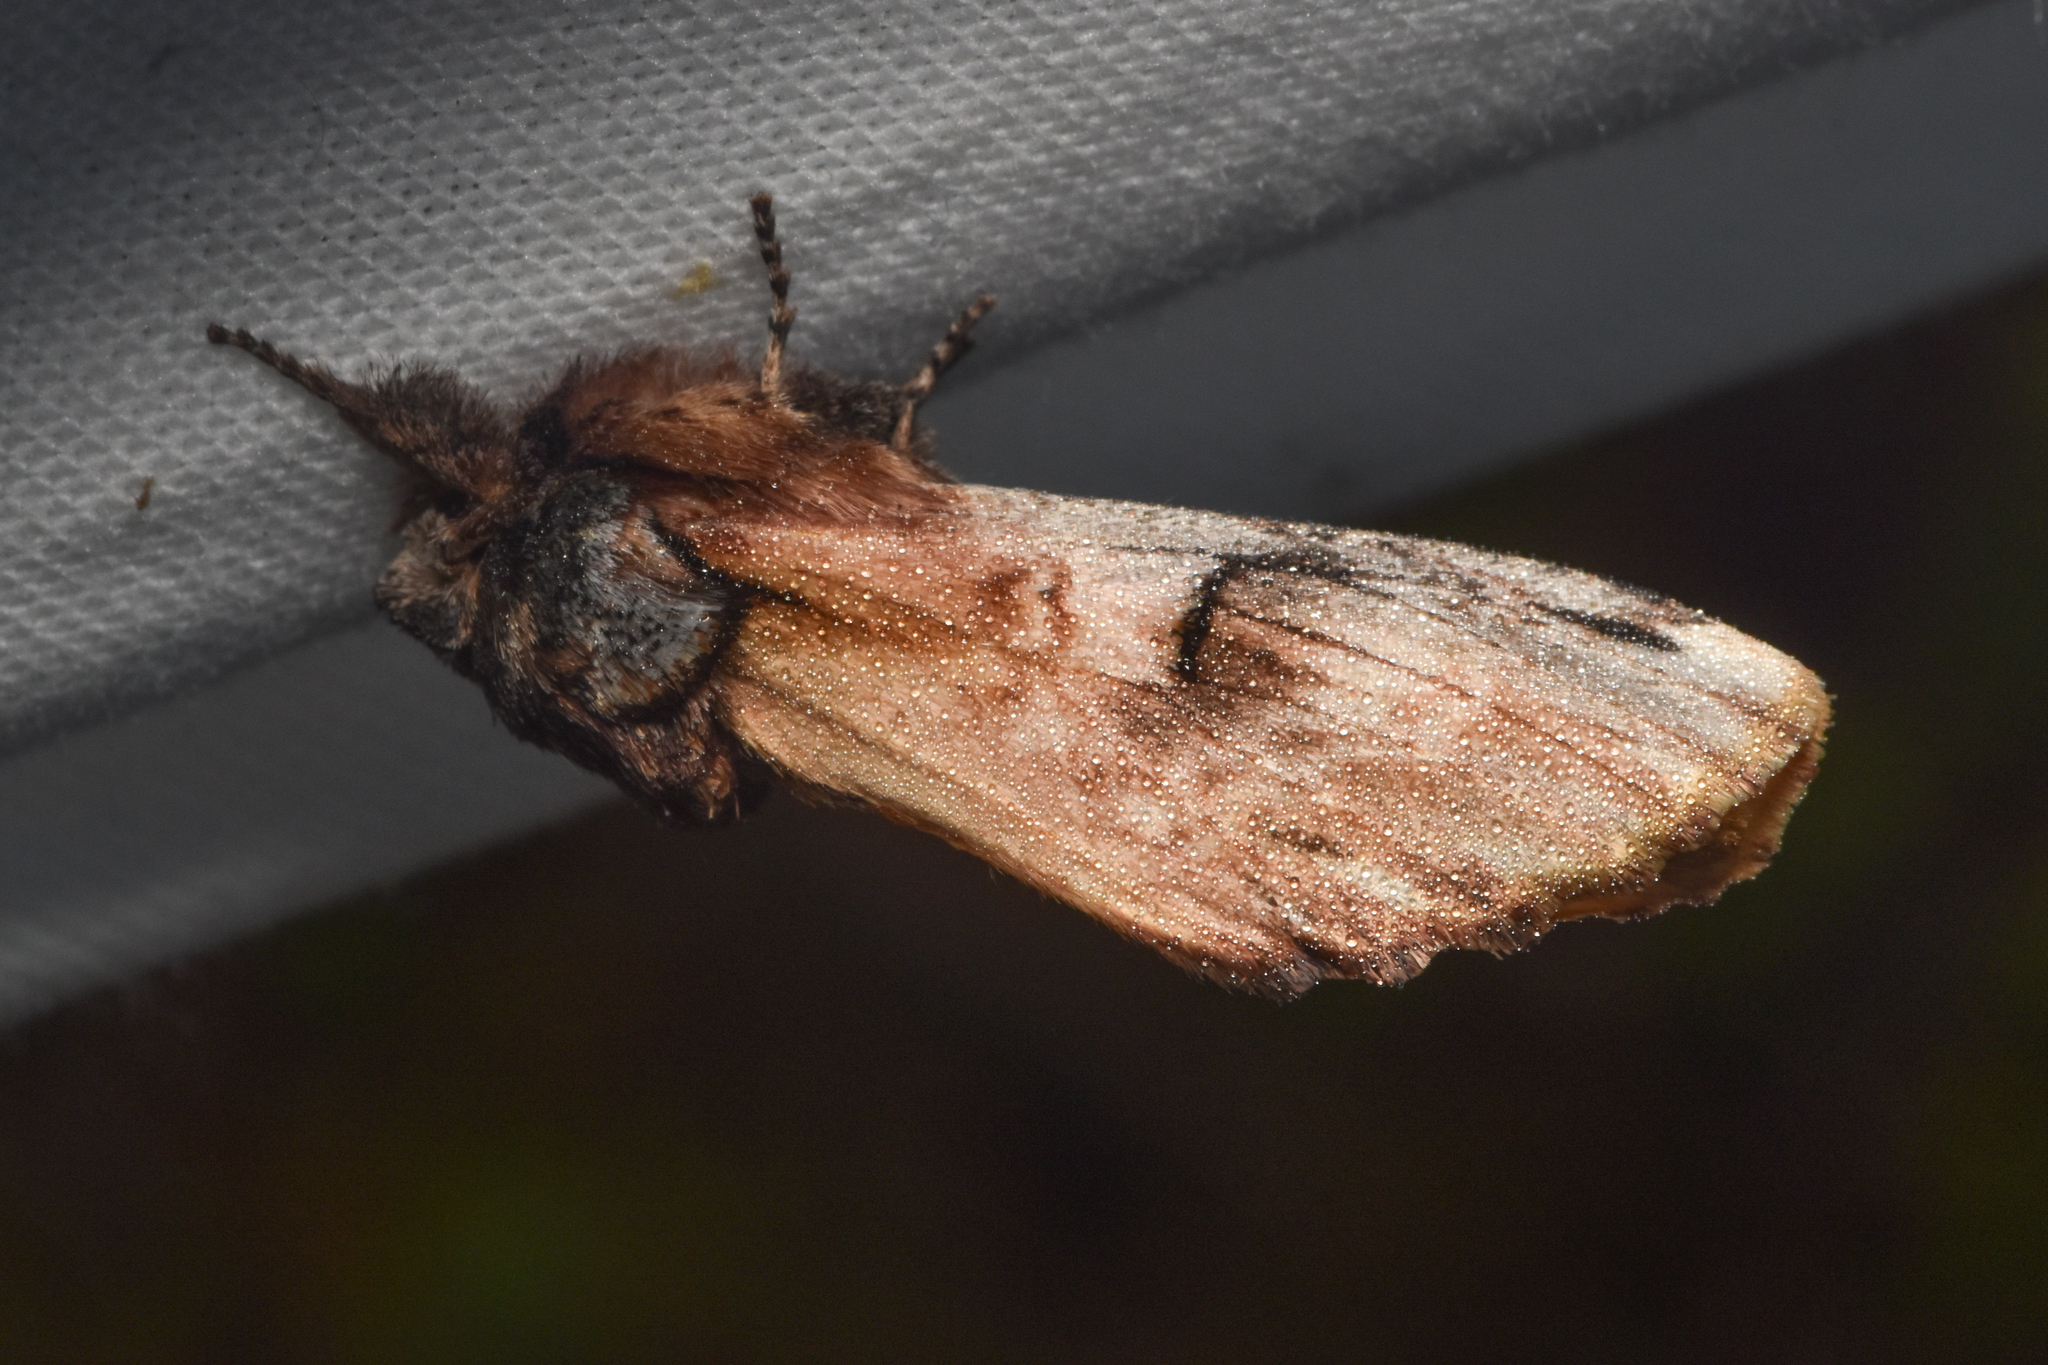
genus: Ianassa
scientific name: Ianassa
